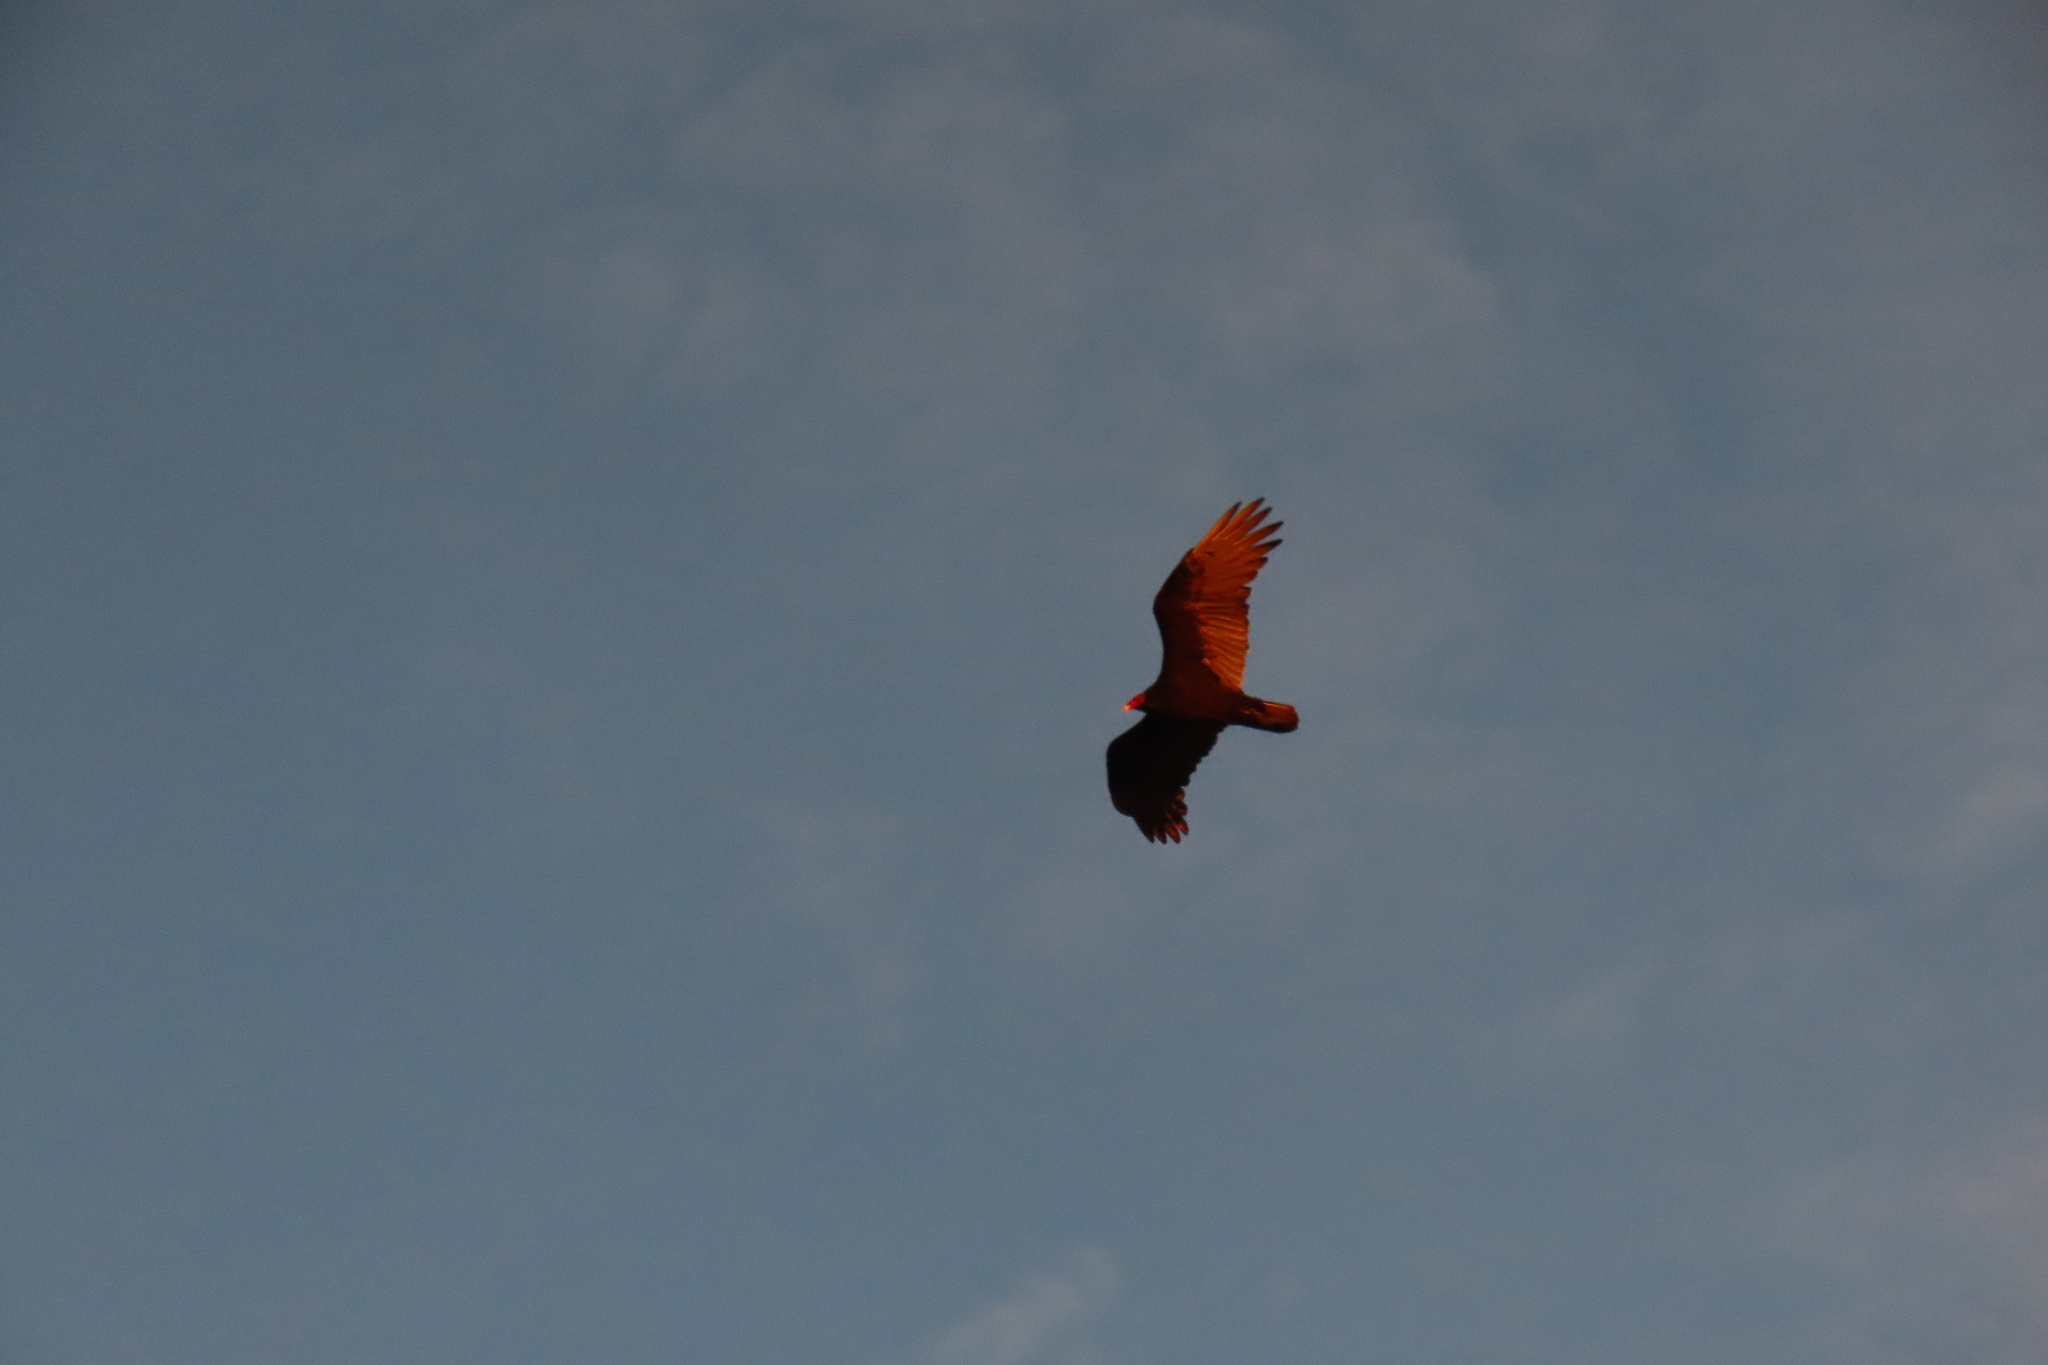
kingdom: Animalia
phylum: Chordata
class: Aves
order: Accipitriformes
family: Cathartidae
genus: Cathartes
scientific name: Cathartes aura
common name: Turkey vulture
